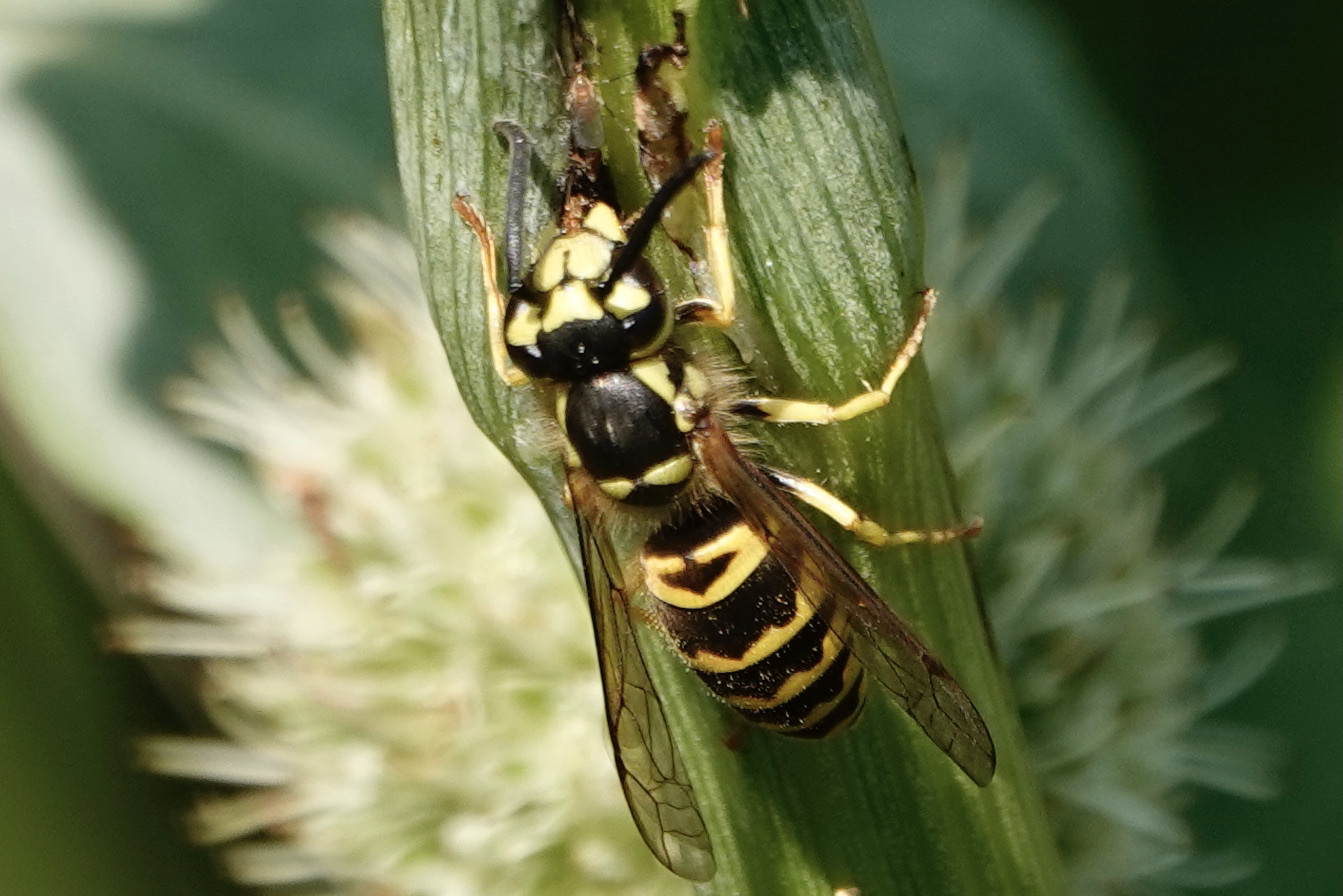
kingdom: Animalia
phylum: Arthropoda
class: Insecta
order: Hymenoptera
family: Vespidae
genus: Vespula
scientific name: Vespula maculifrons
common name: Eastern yellowjacket
